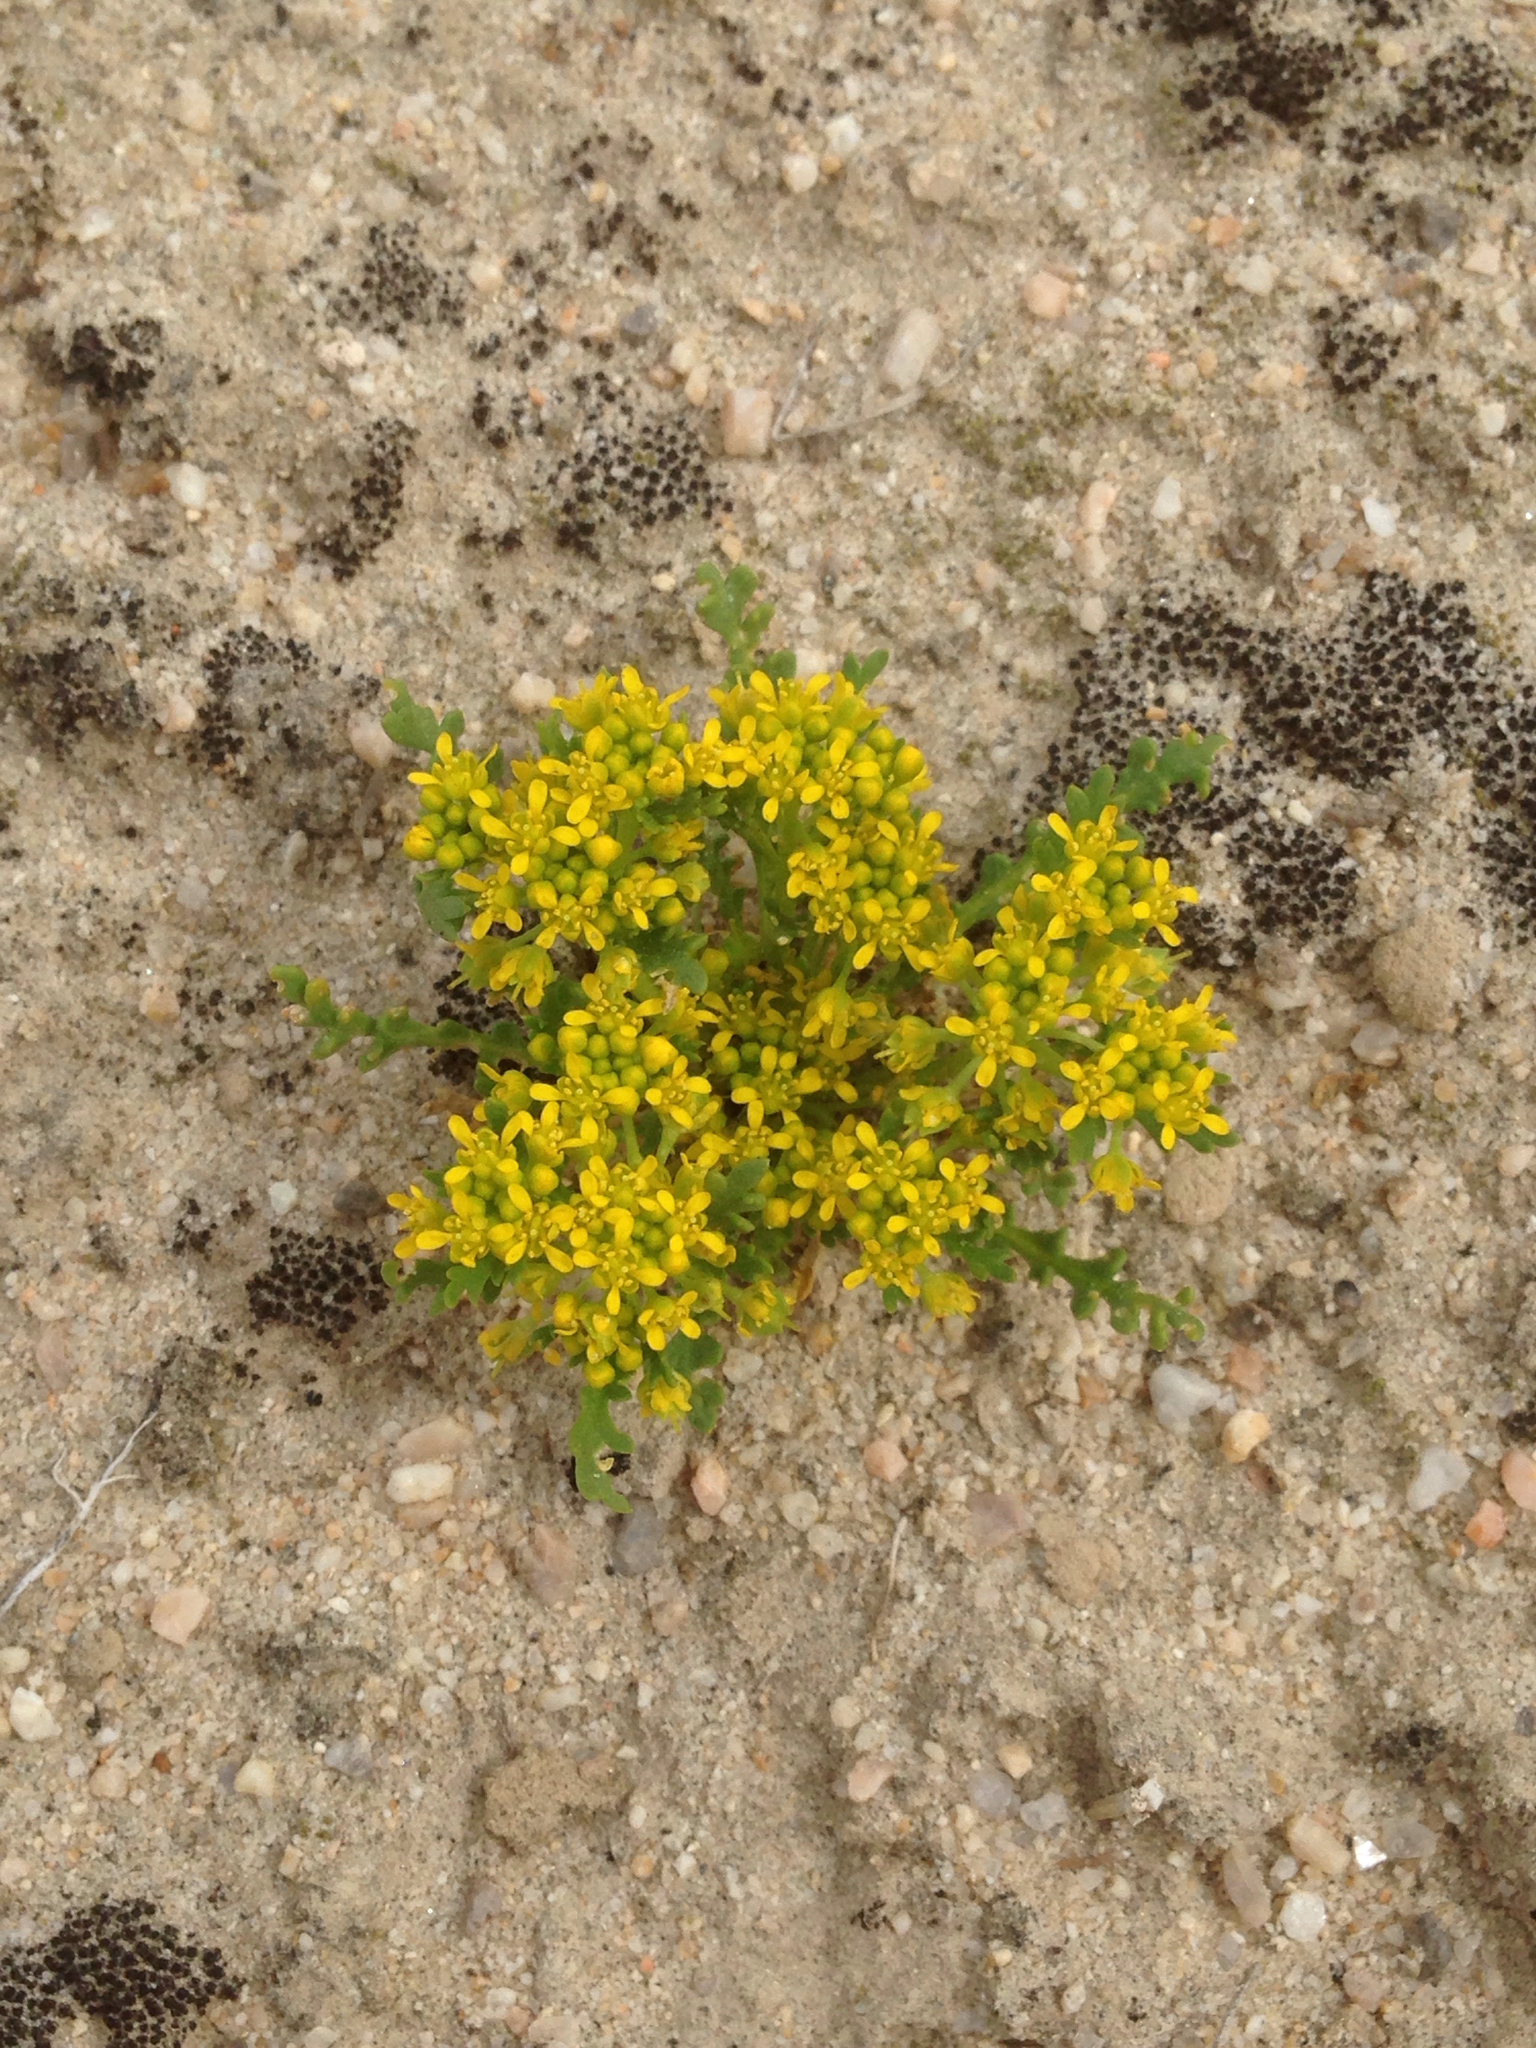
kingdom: Plantae
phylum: Tracheophyta
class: Magnoliopsida
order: Brassicales
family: Brassicaceae
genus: Lepidium
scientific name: Lepidium flavum
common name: Yellow pepperwort
